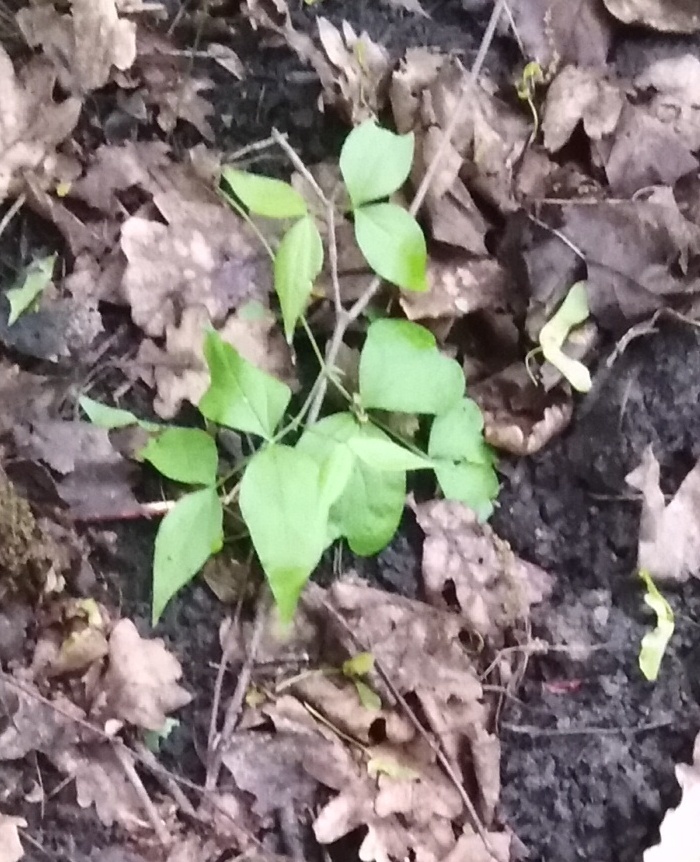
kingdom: Plantae
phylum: Tracheophyta
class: Magnoliopsida
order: Fabales
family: Fabaceae
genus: Lathyrus
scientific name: Lathyrus vernus
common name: Spring pea
